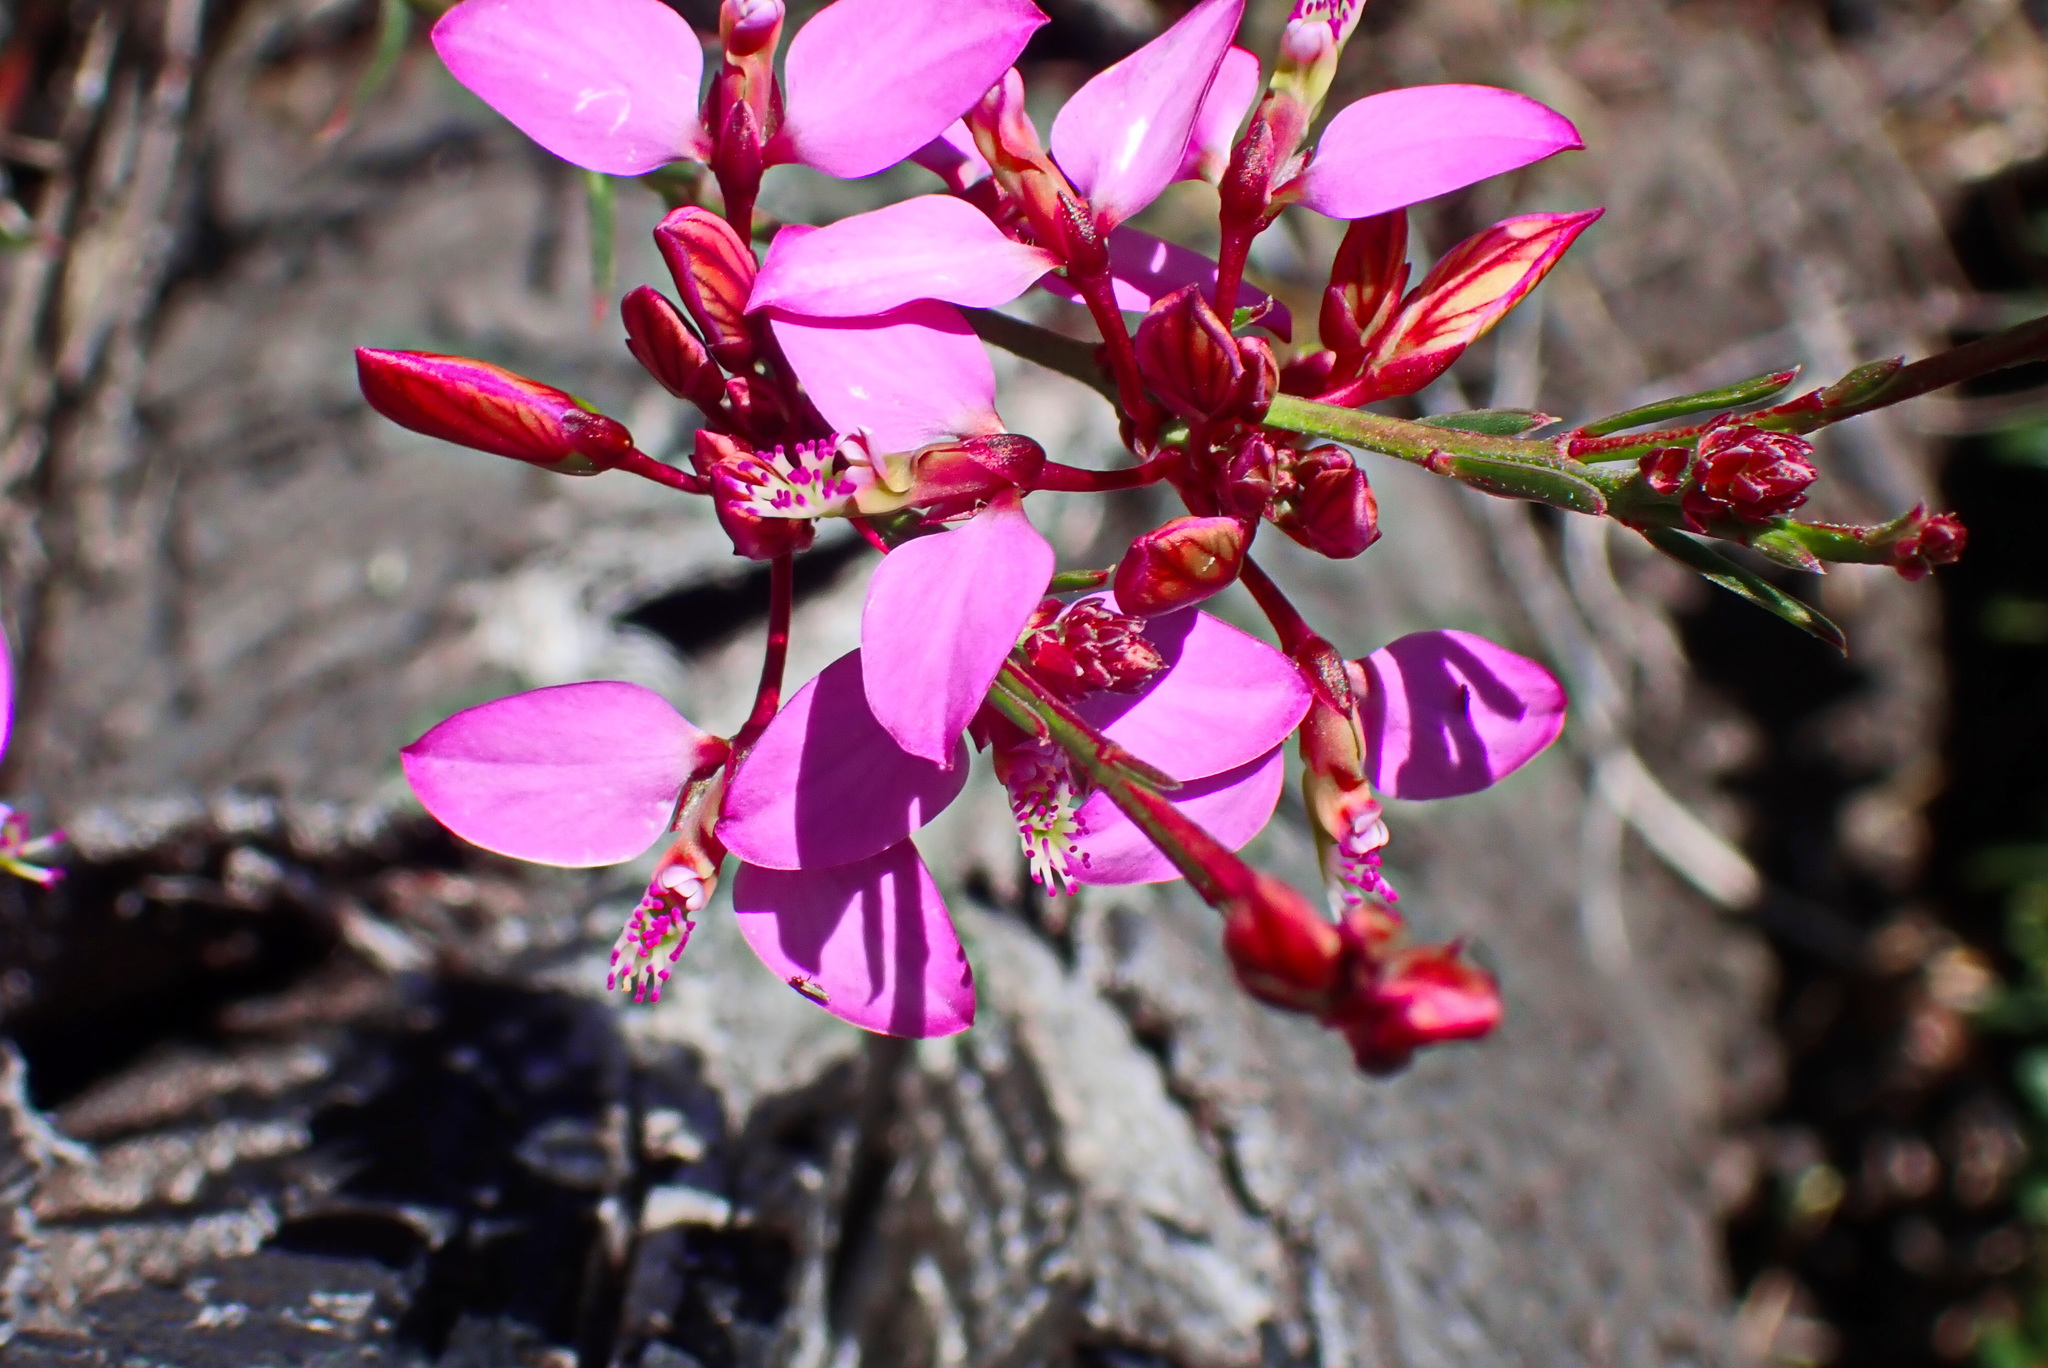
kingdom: Plantae
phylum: Tracheophyta
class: Magnoliopsida
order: Fabales
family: Polygalaceae
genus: Polygala
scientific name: Polygala triquetra
